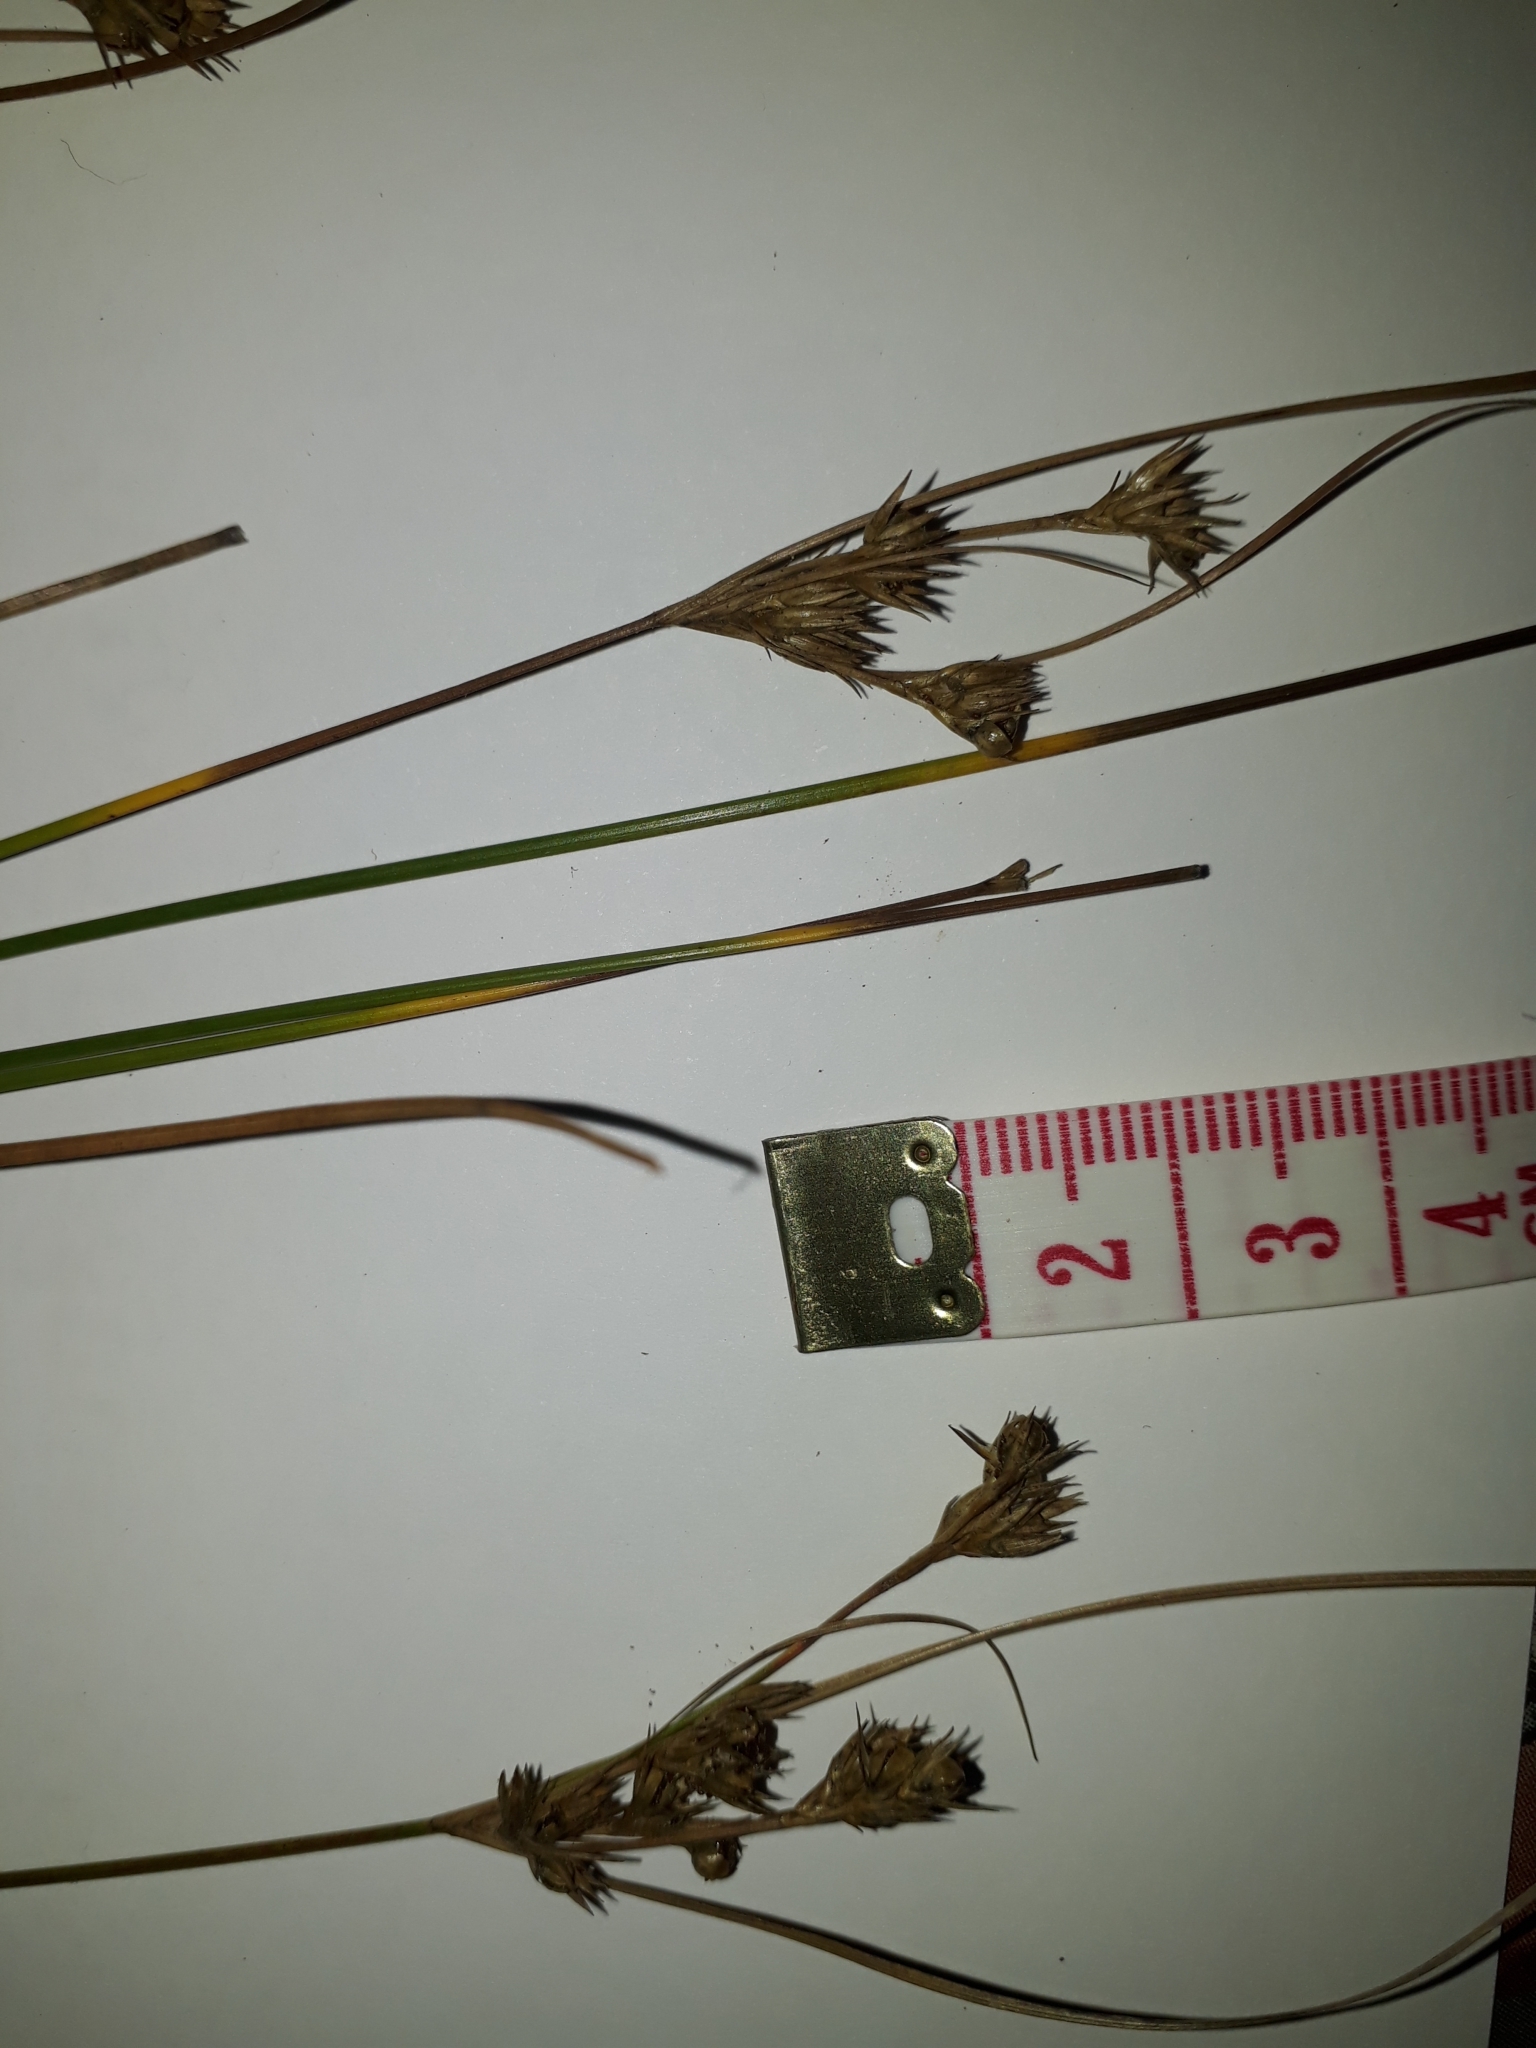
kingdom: Plantae
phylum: Tracheophyta
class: Liliopsida
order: Poales
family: Juncaceae
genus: Juncus
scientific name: Juncus tenuis
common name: Slender rush
